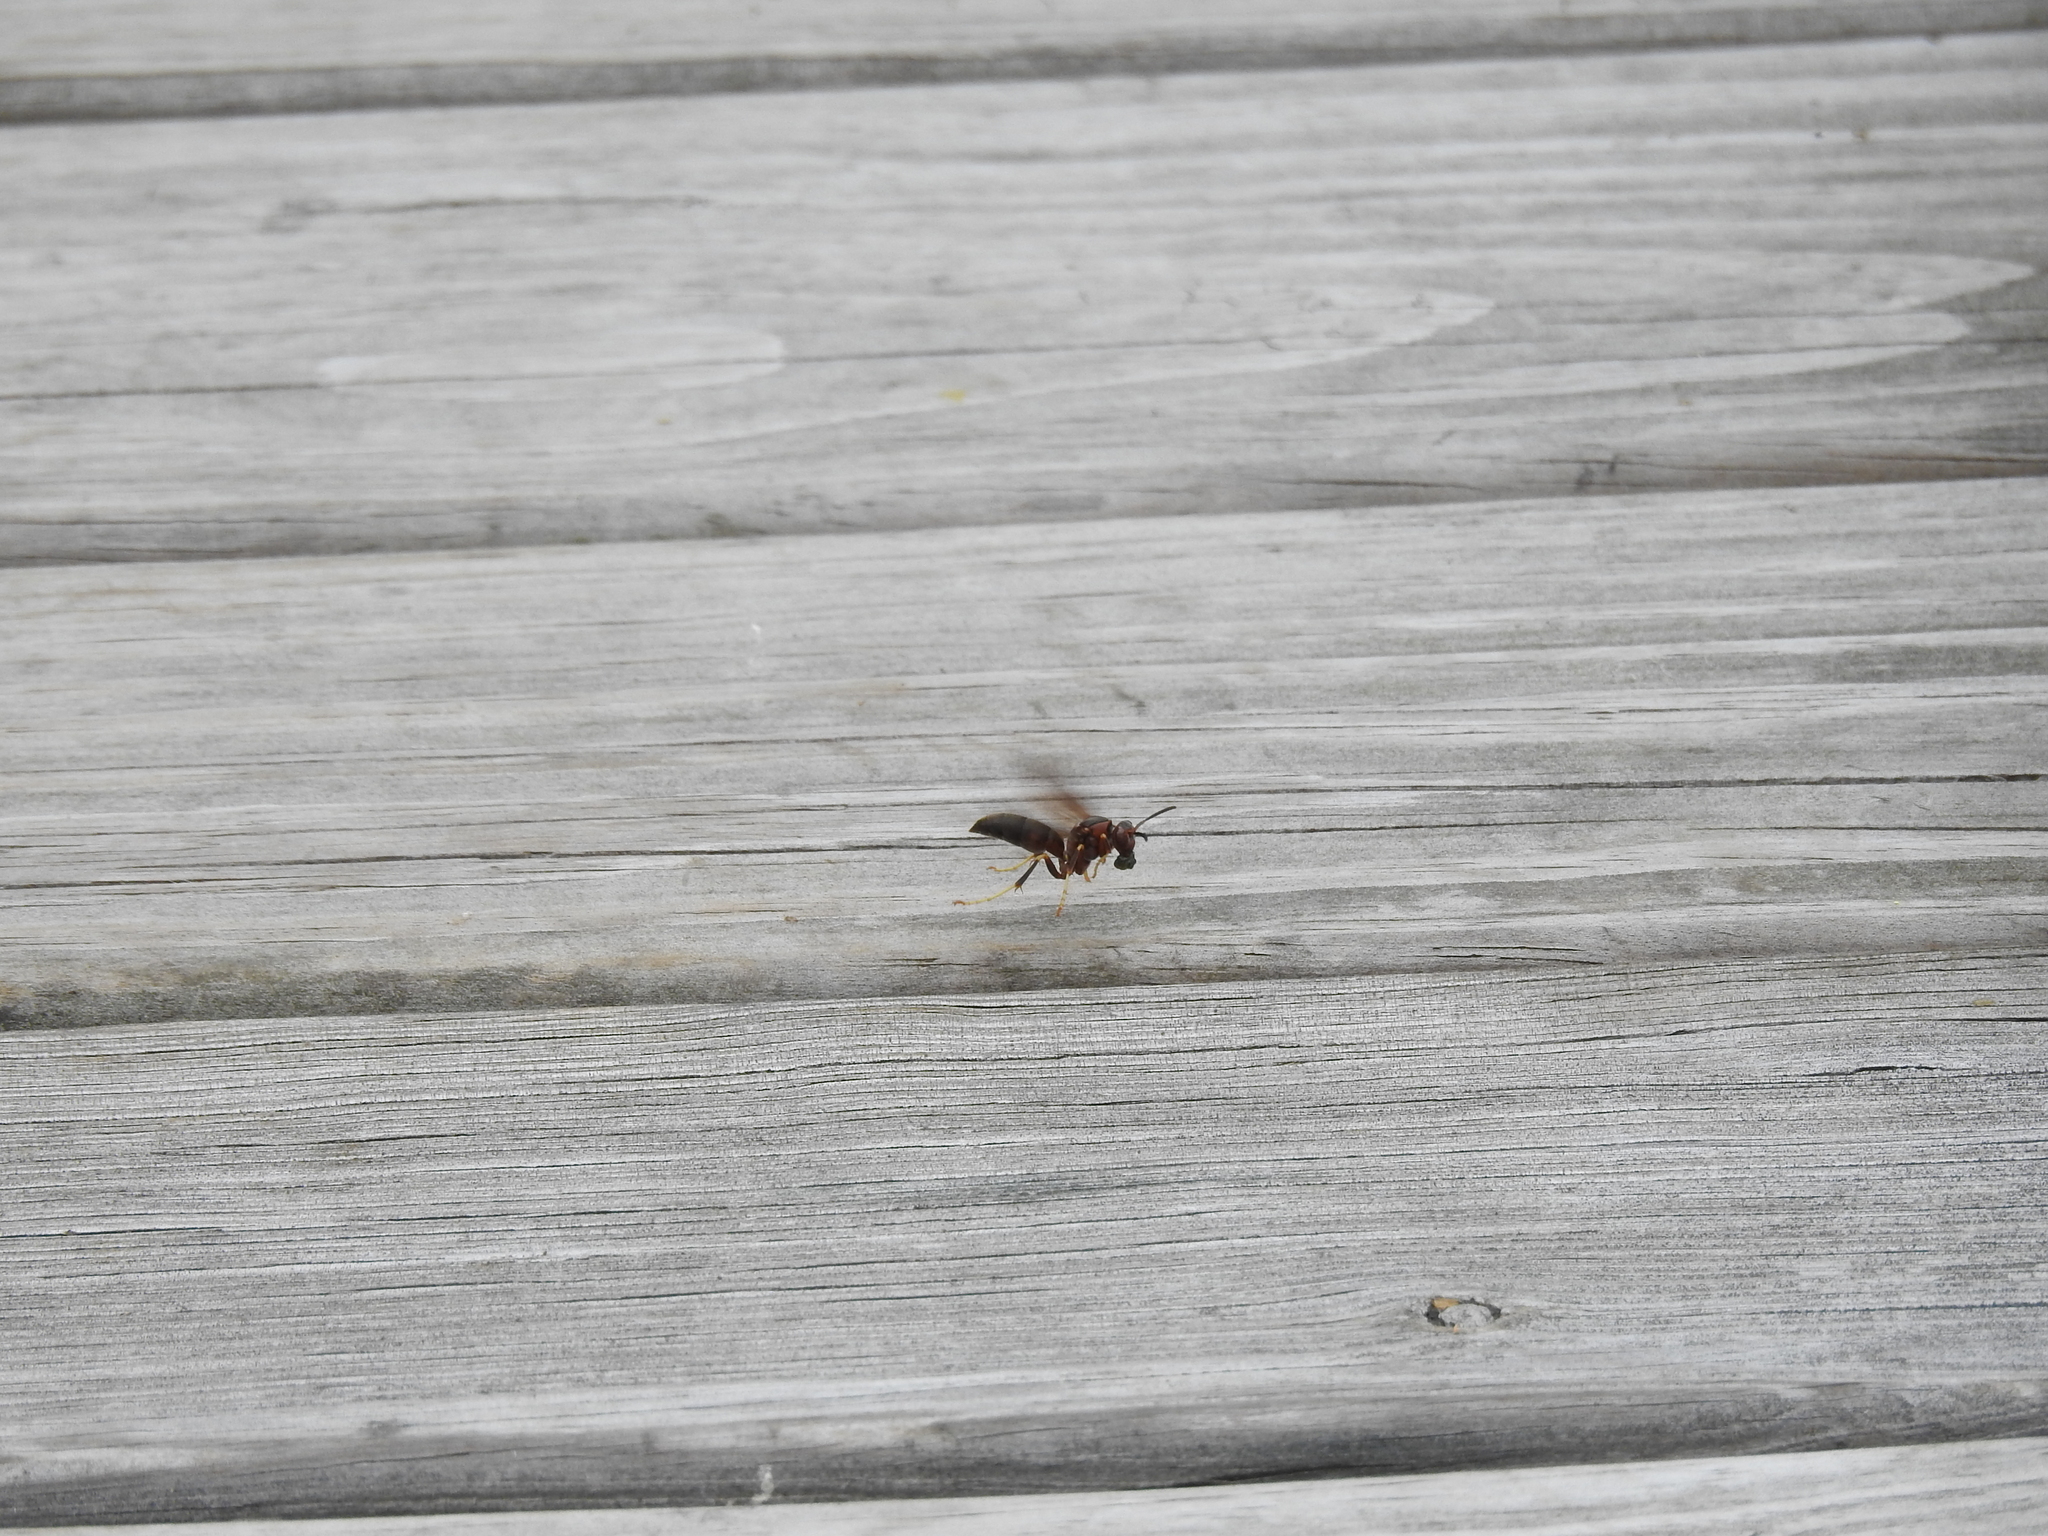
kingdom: Animalia
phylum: Arthropoda
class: Insecta
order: Hymenoptera
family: Eumenidae
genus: Polistes
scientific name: Polistes metricus
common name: Metric paper wasp
